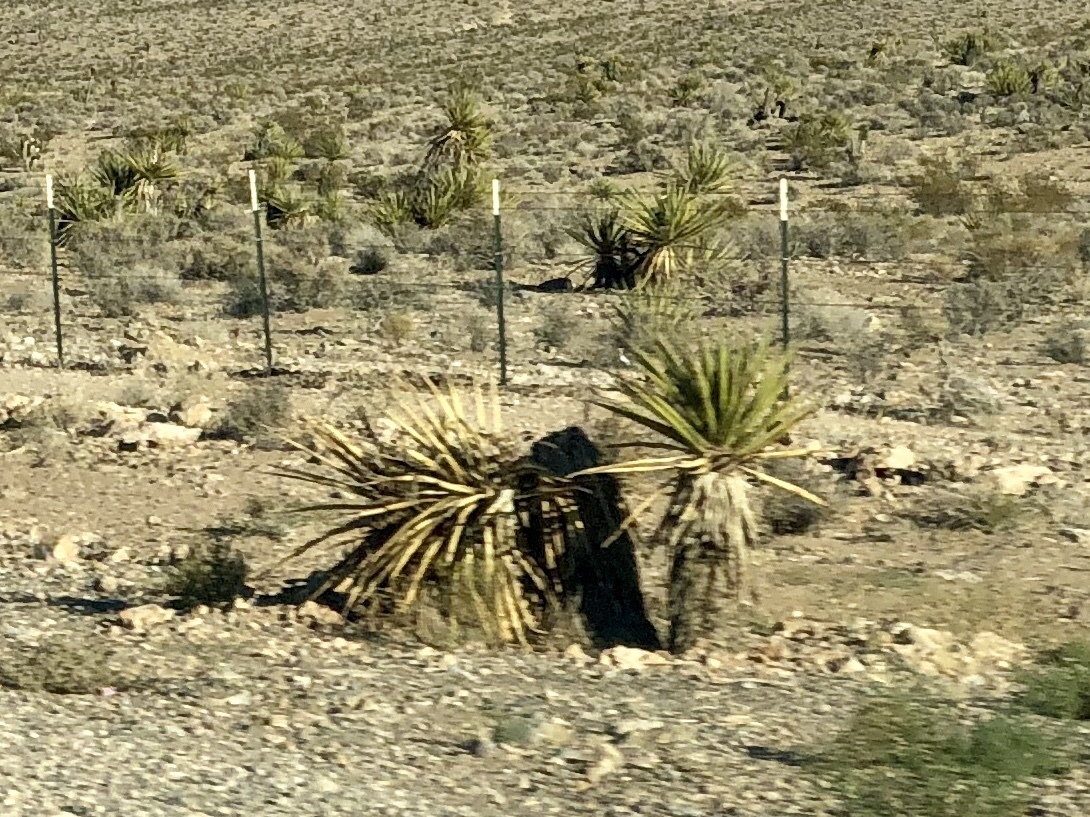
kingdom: Plantae
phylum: Tracheophyta
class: Liliopsida
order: Asparagales
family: Asparagaceae
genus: Yucca
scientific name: Yucca schidigera
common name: Mojave yucca
